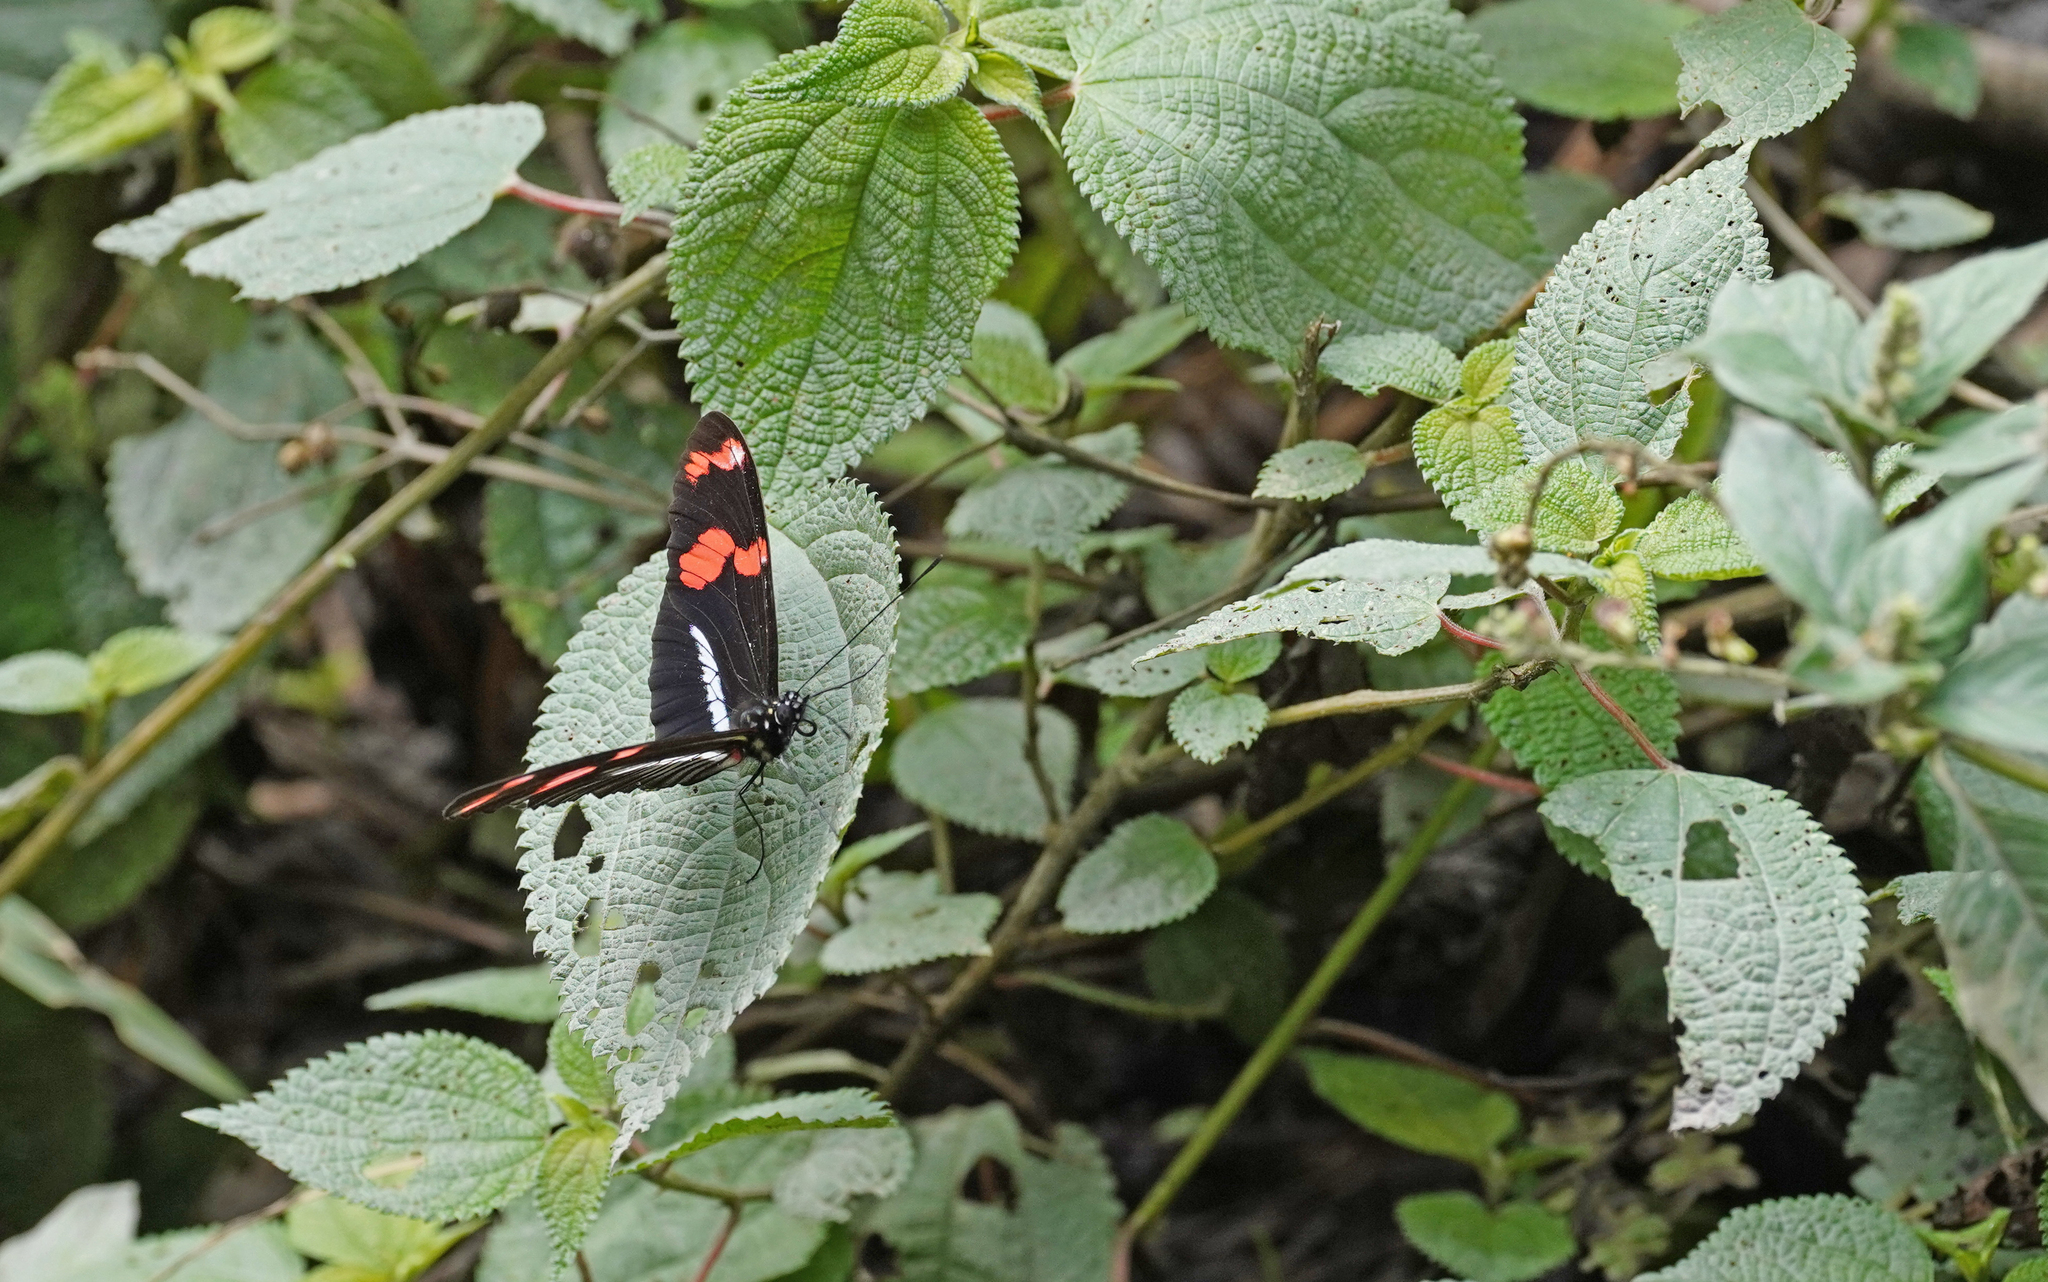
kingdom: Animalia
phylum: Arthropoda
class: Insecta
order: Lepidoptera
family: Nymphalidae
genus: Heliconius
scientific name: Heliconius telesiphe
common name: Telesiphe longwing
